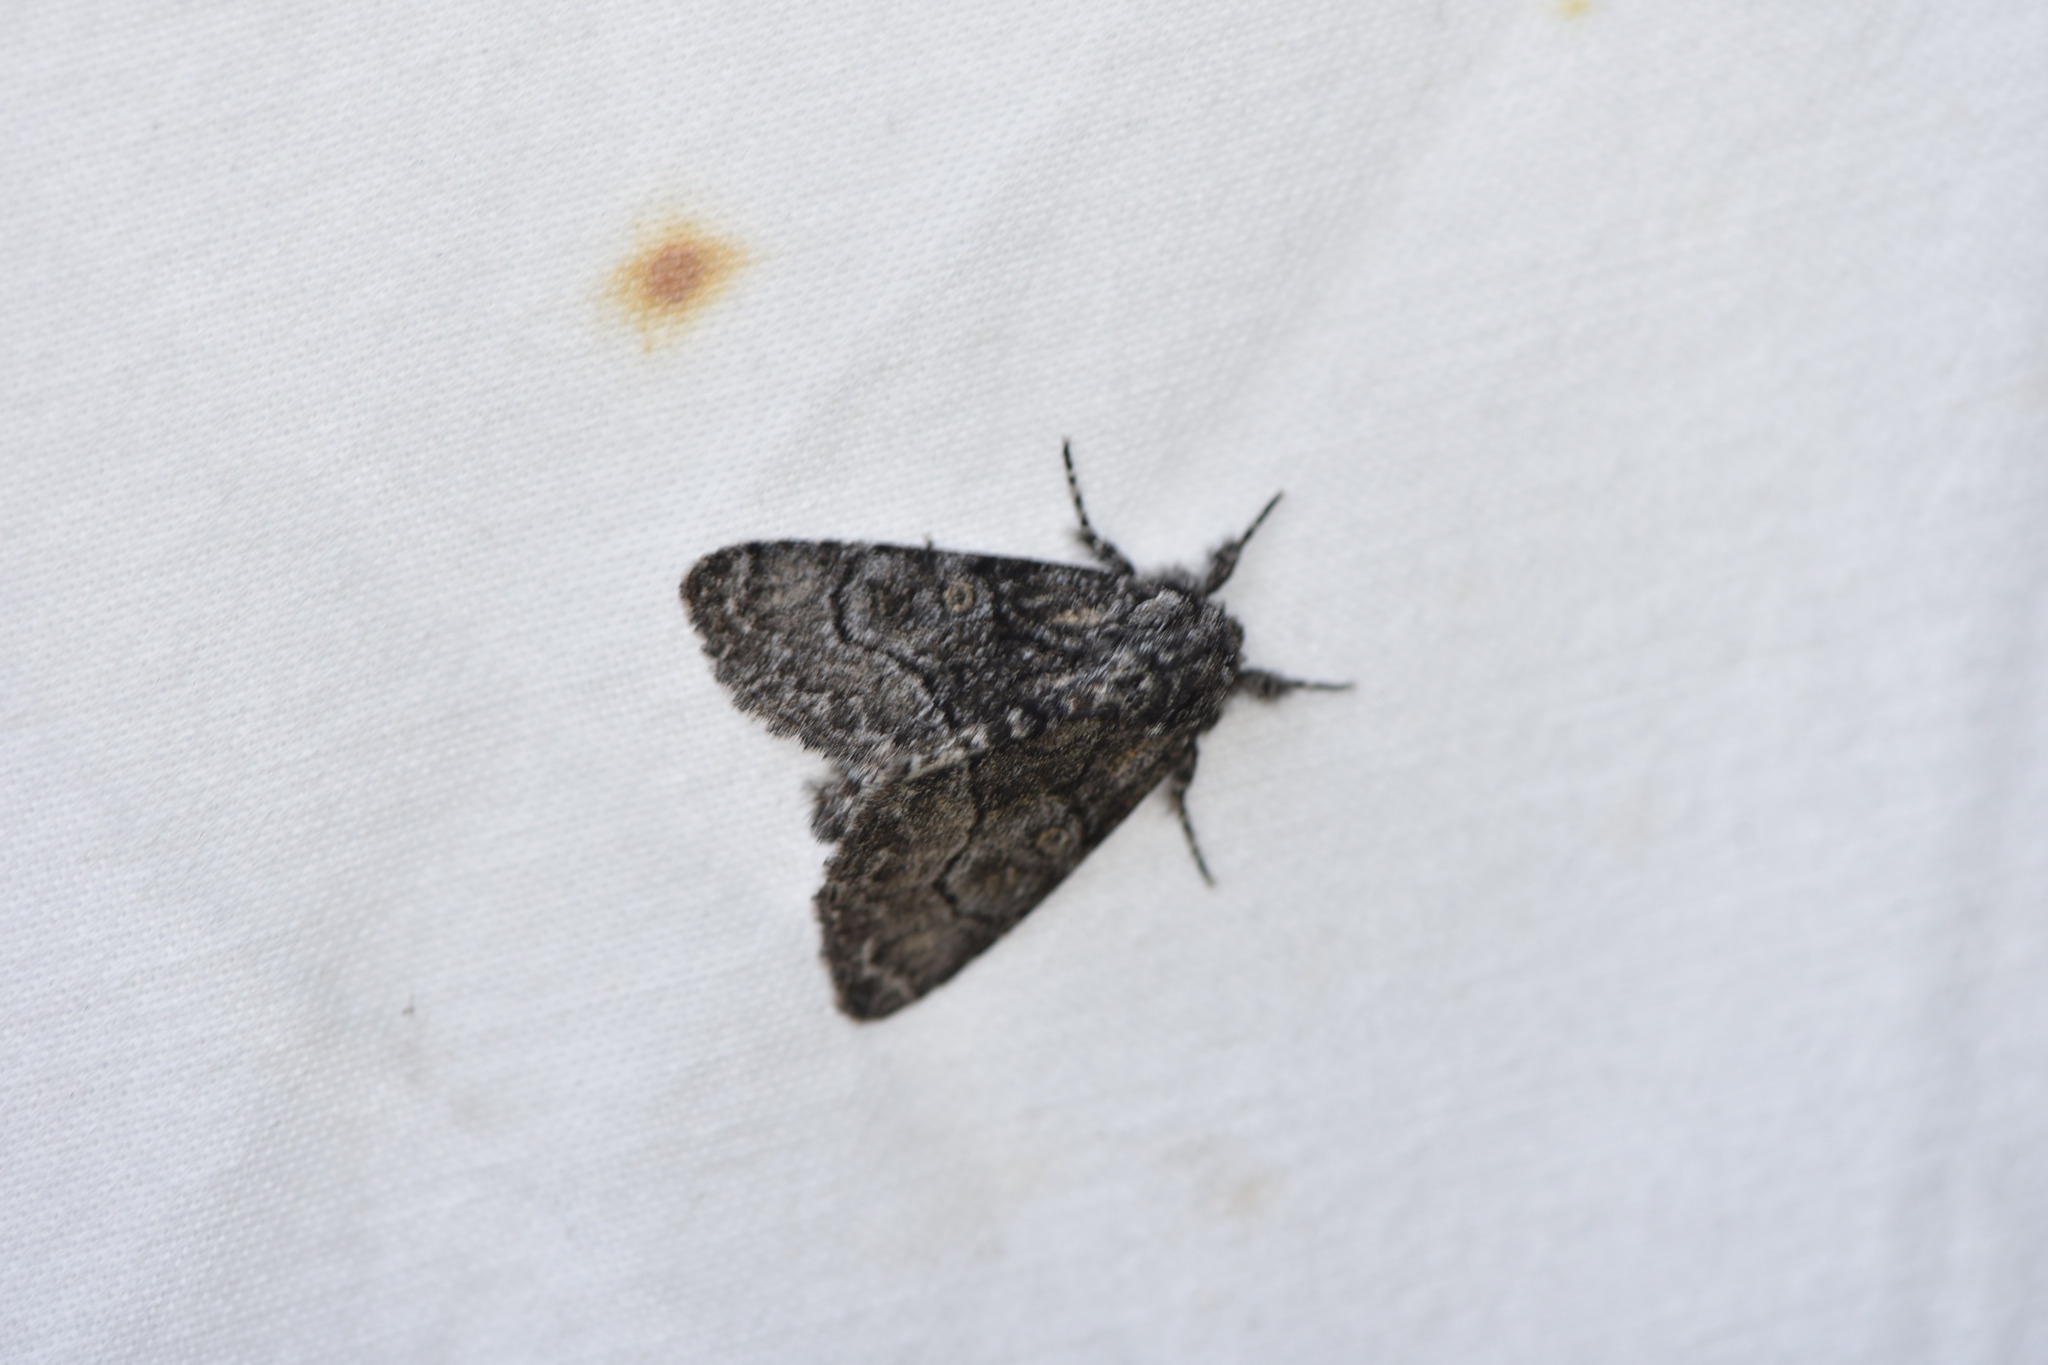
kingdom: Animalia
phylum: Arthropoda
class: Insecta
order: Lepidoptera
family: Noctuidae
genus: Raphia
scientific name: Raphia frater
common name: Brother
